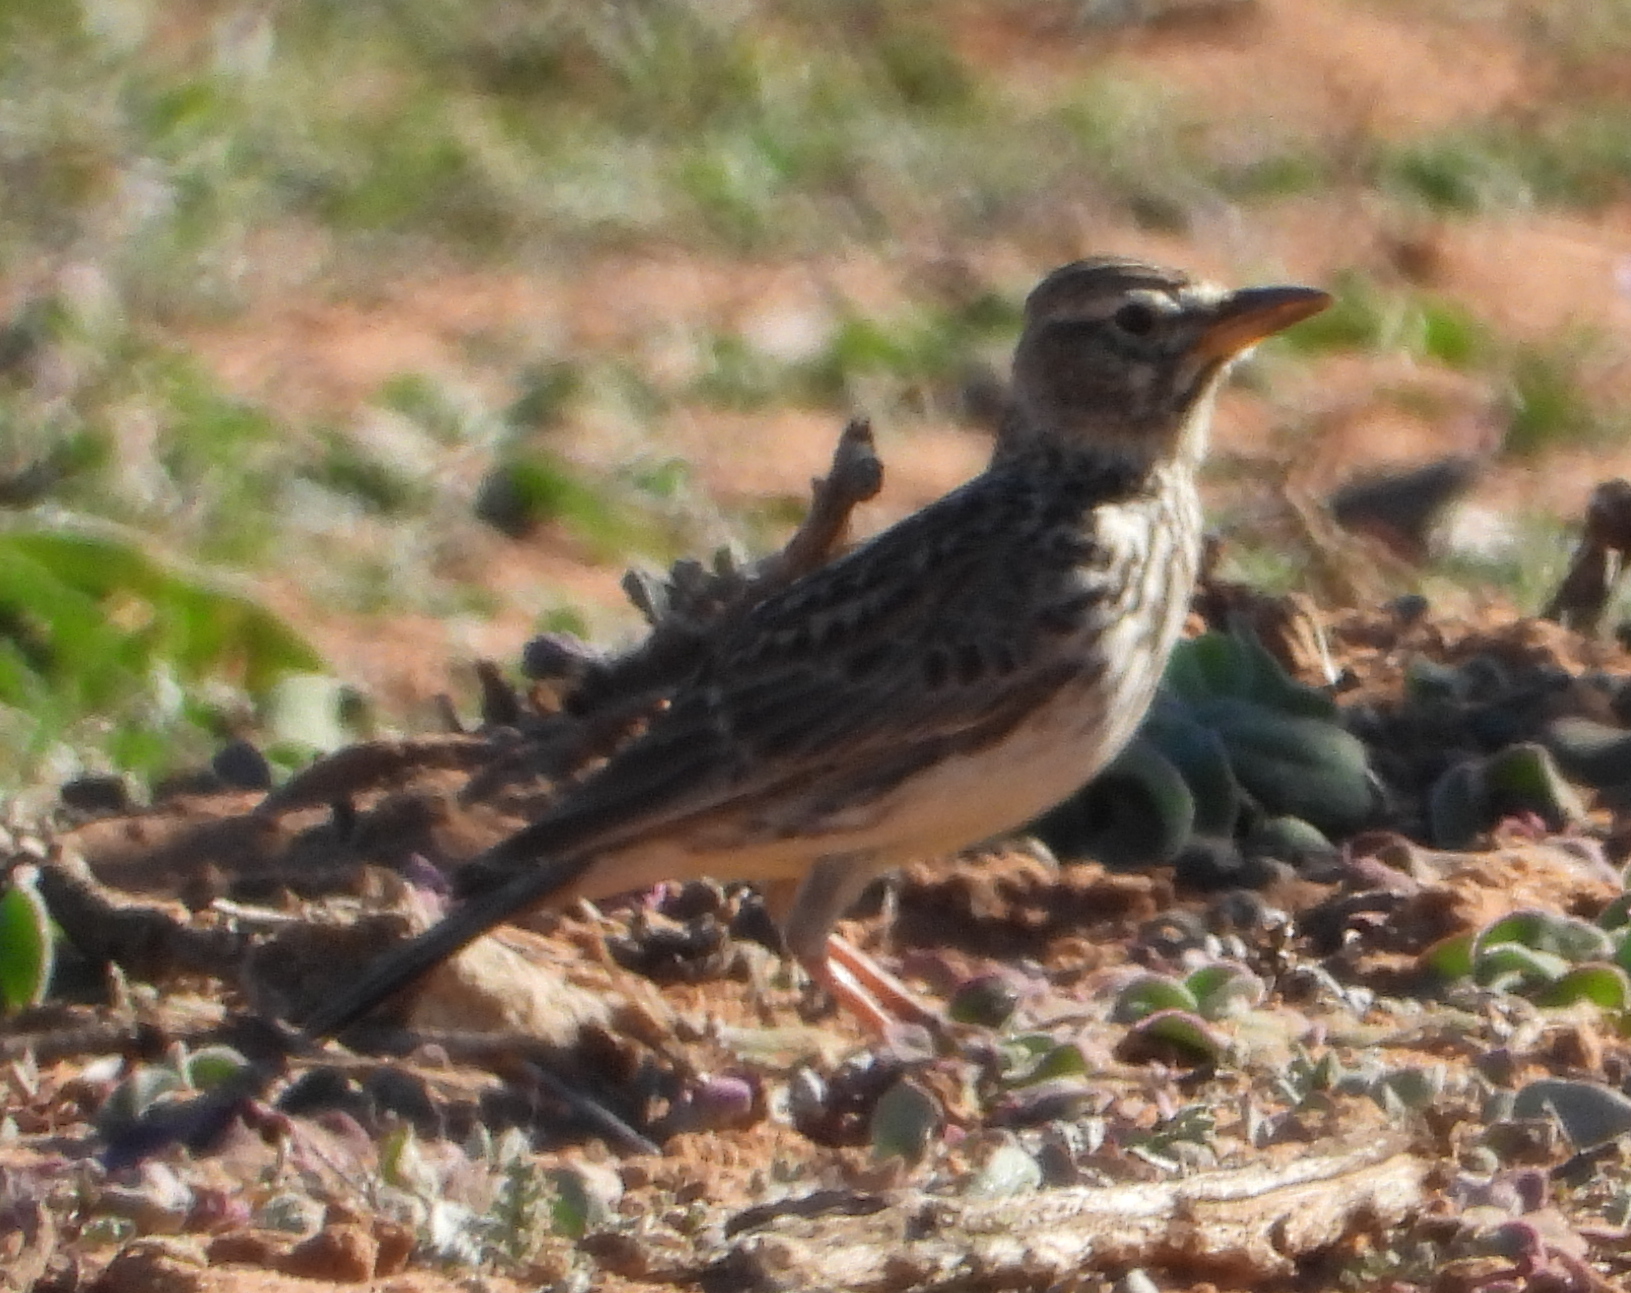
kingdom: Animalia
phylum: Chordata
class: Aves
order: Passeriformes
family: Alaudidae
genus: Galerida
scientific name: Galerida magnirostris
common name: Large-billed lark
